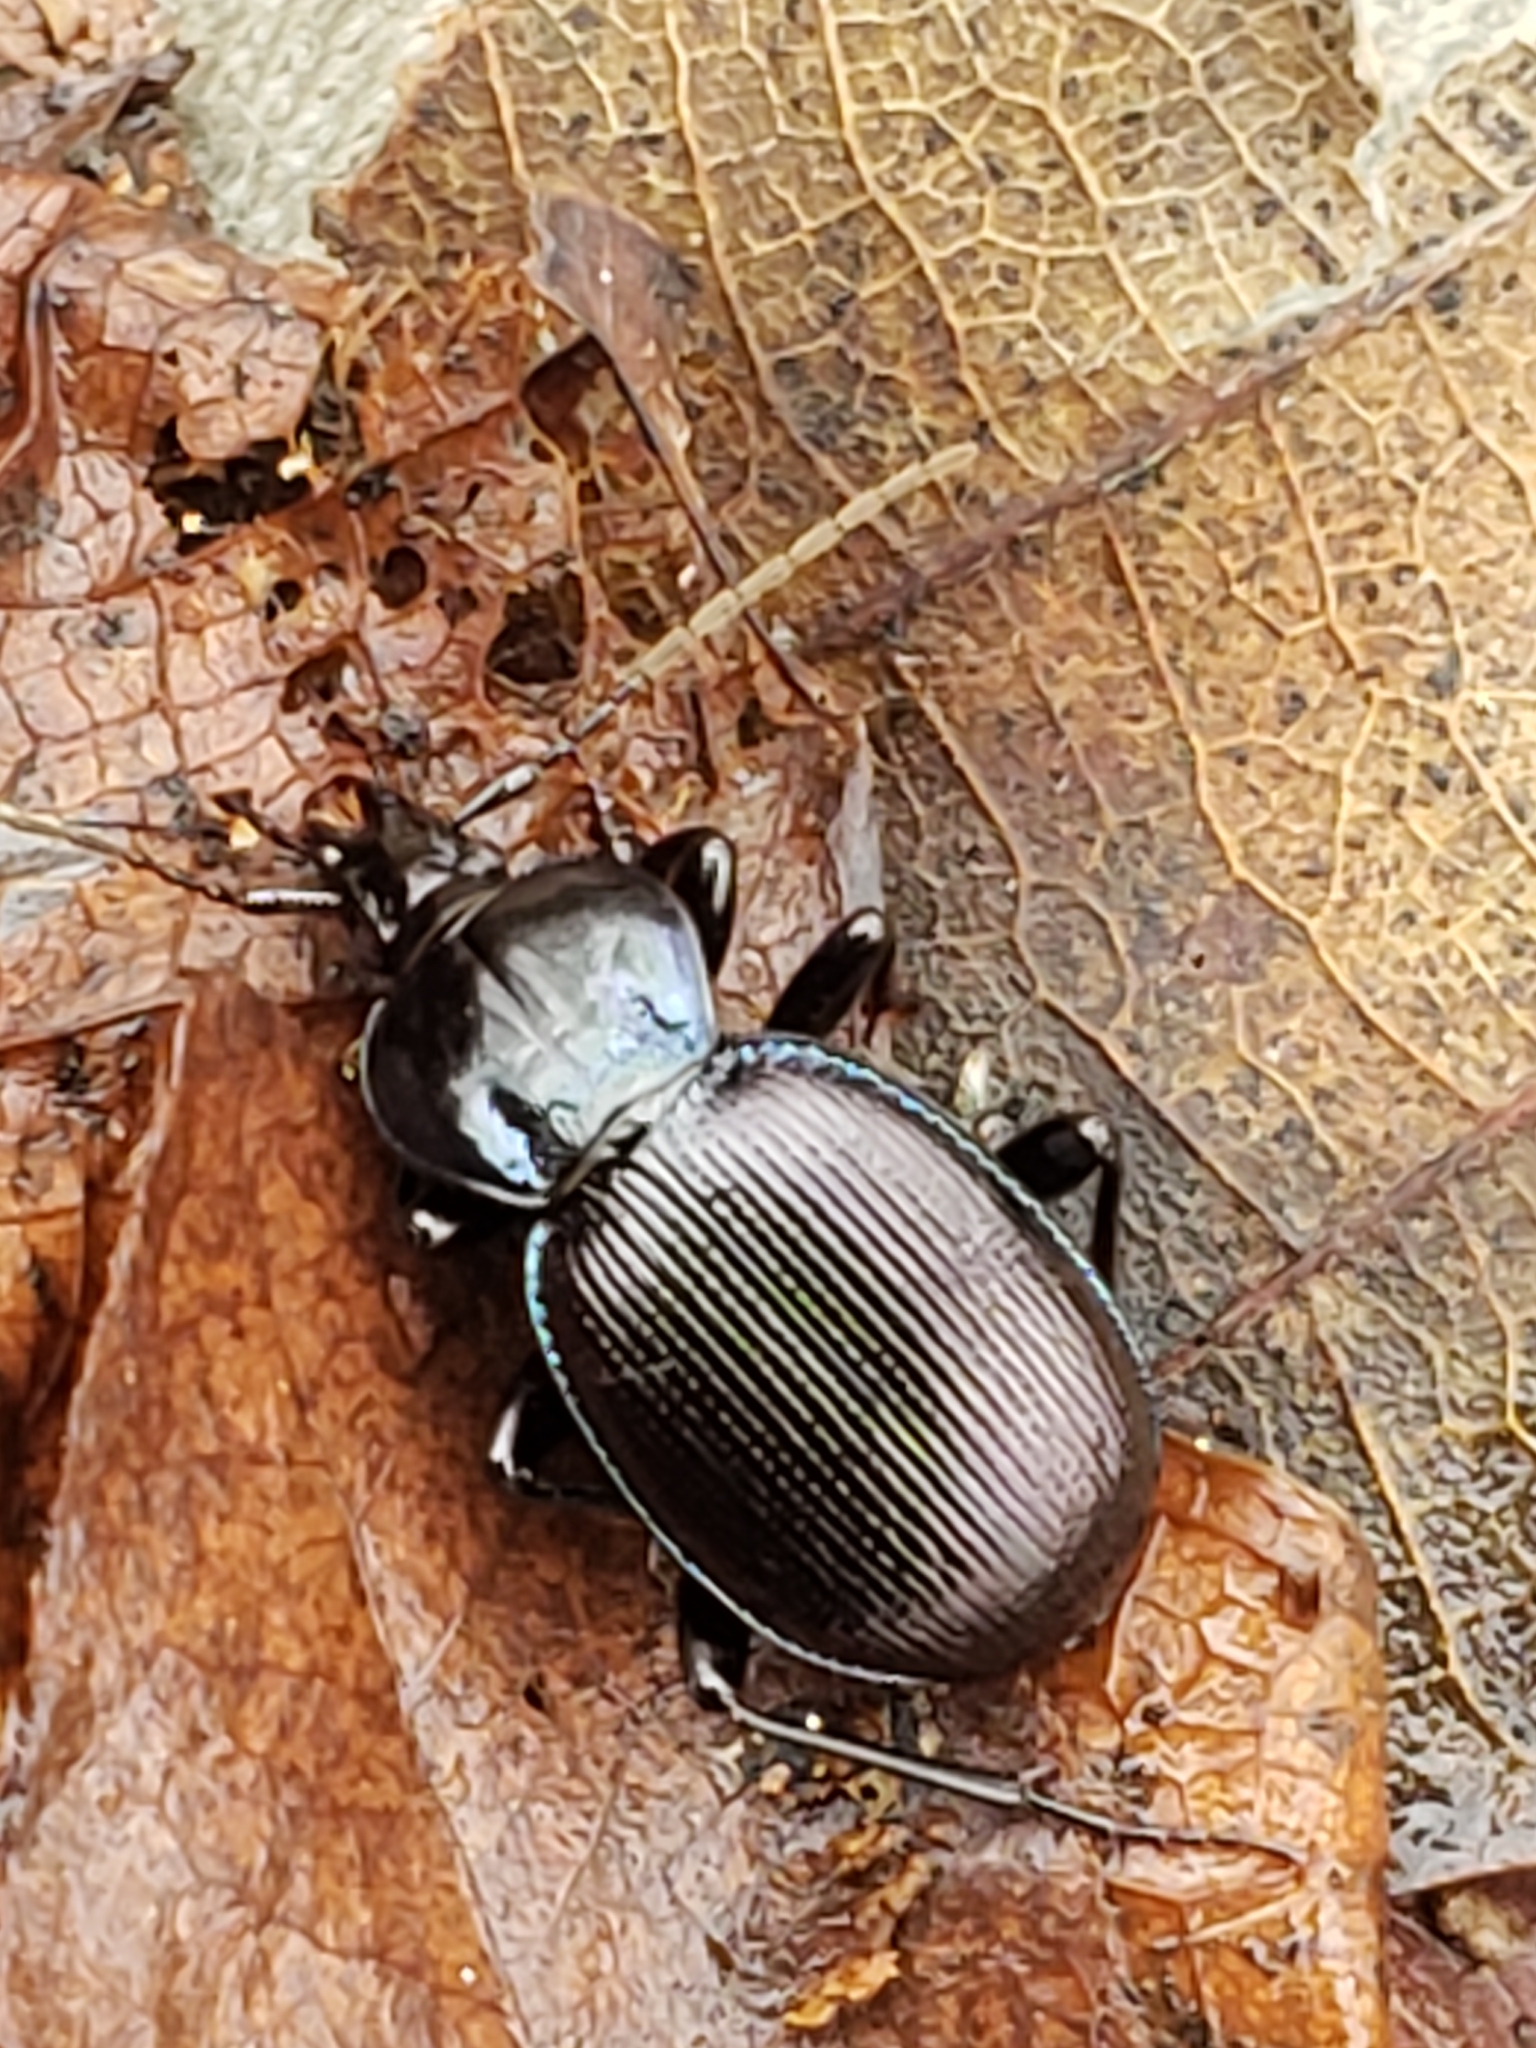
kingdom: Animalia
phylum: Arthropoda
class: Insecta
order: Coleoptera
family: Carabidae
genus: Sphaeroderus
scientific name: Sphaeroderus stenostomus
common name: Small snail-eating ground beetle
